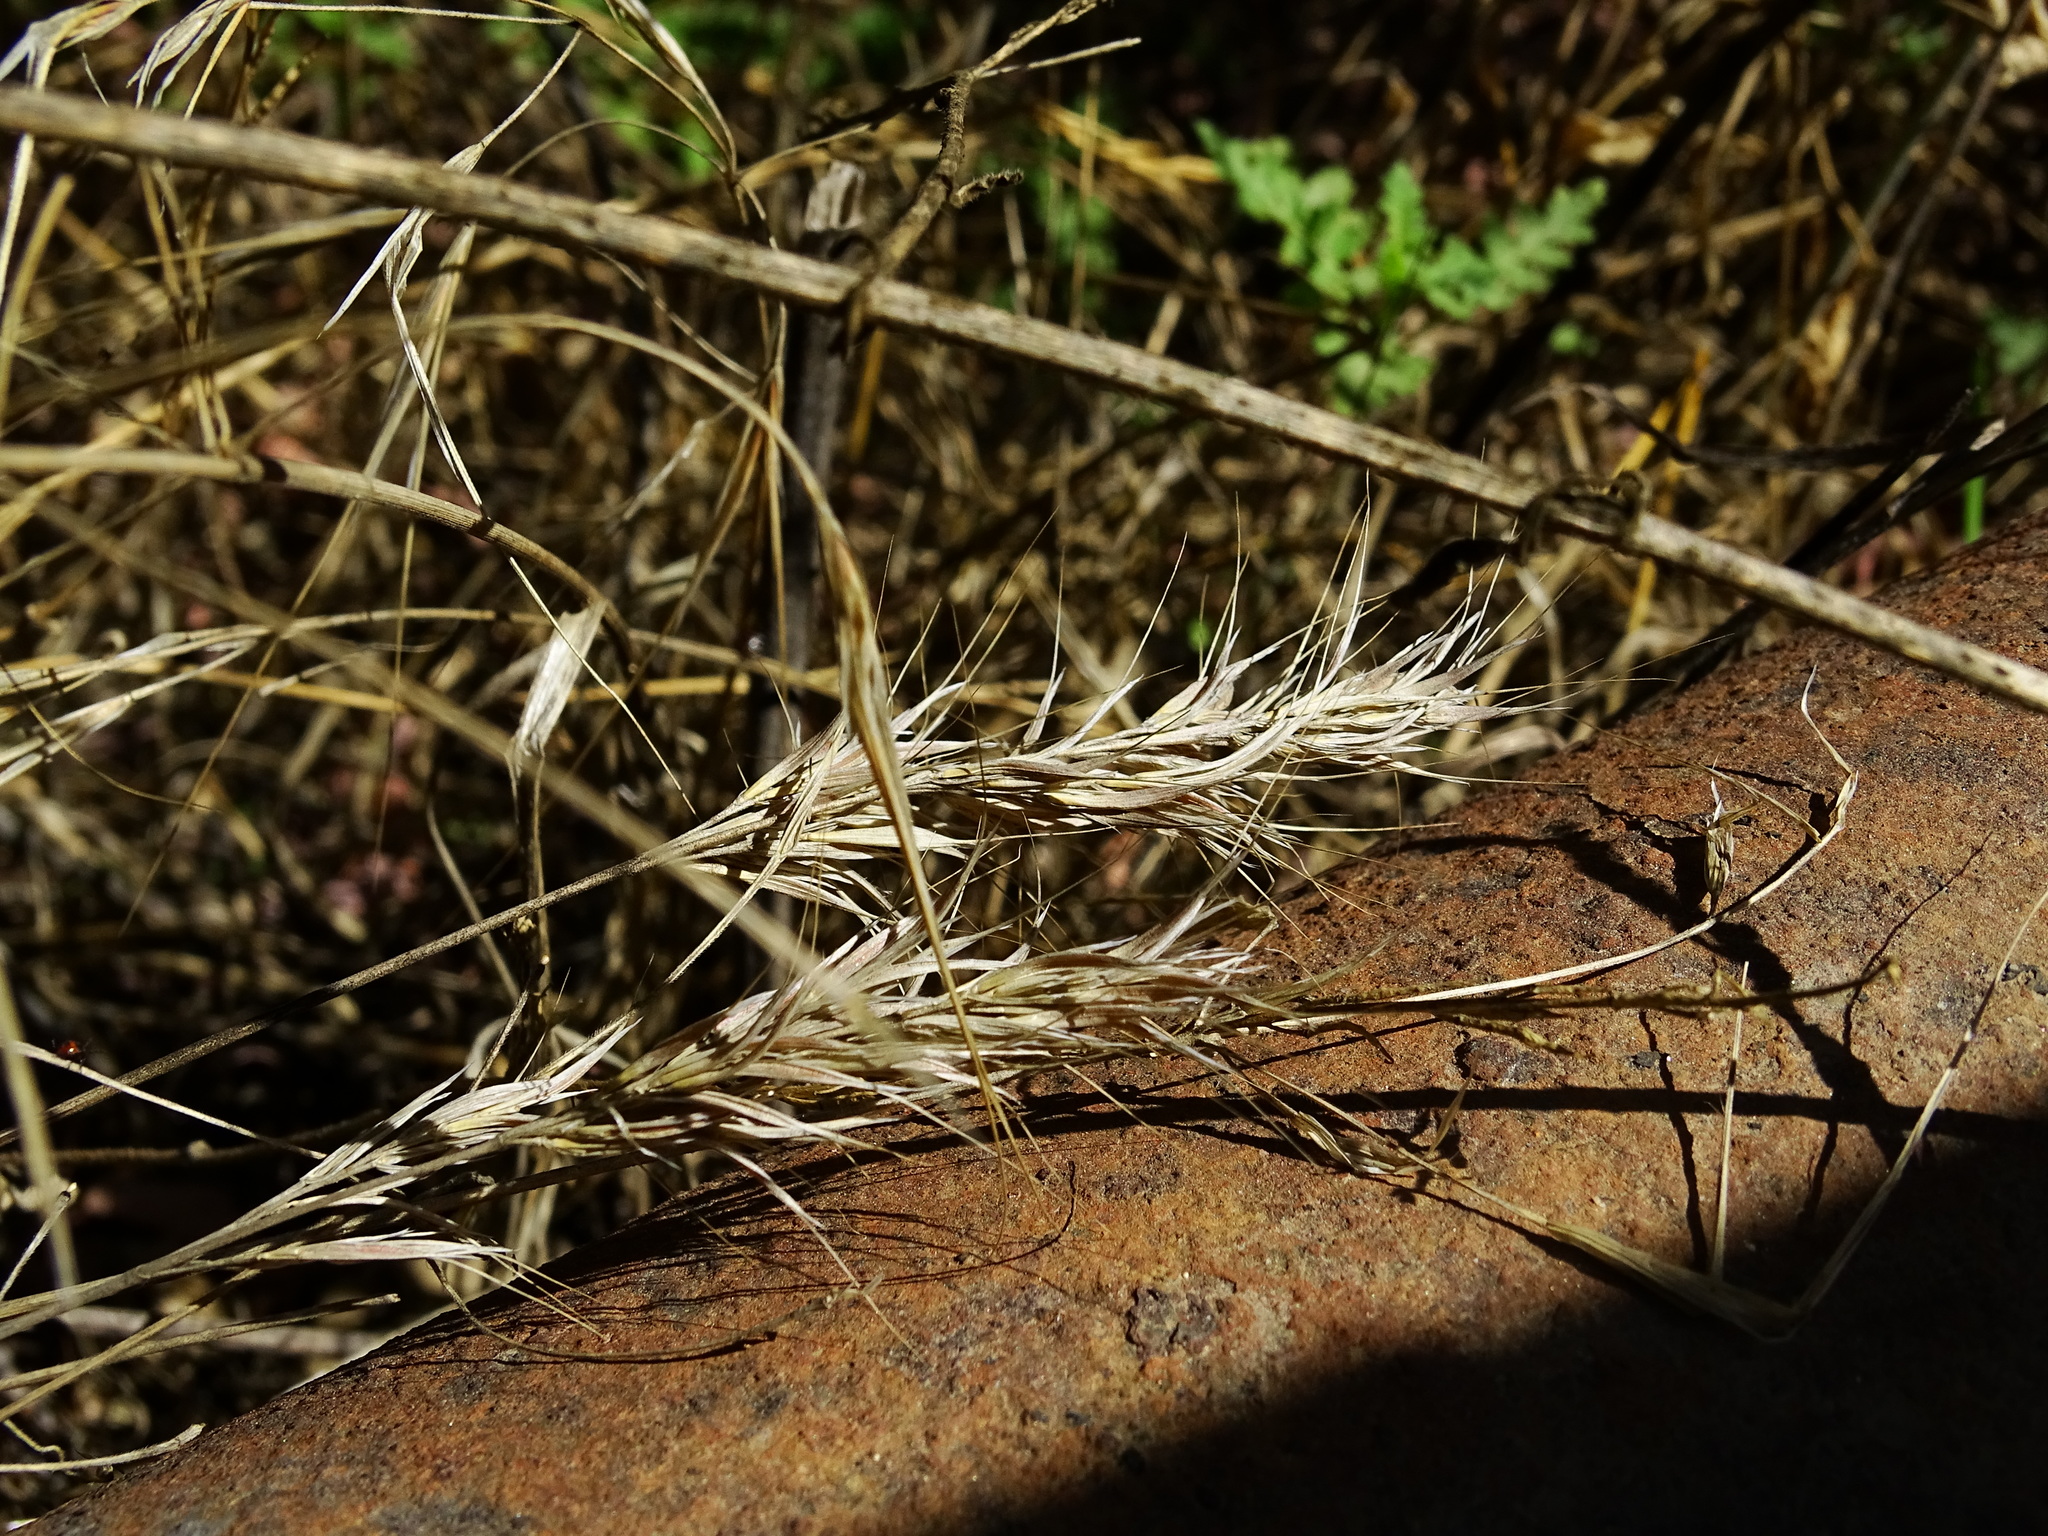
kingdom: Plantae
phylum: Tracheophyta
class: Liliopsida
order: Poales
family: Poaceae
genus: Bromus
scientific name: Bromus madritensis
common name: Compact brome
